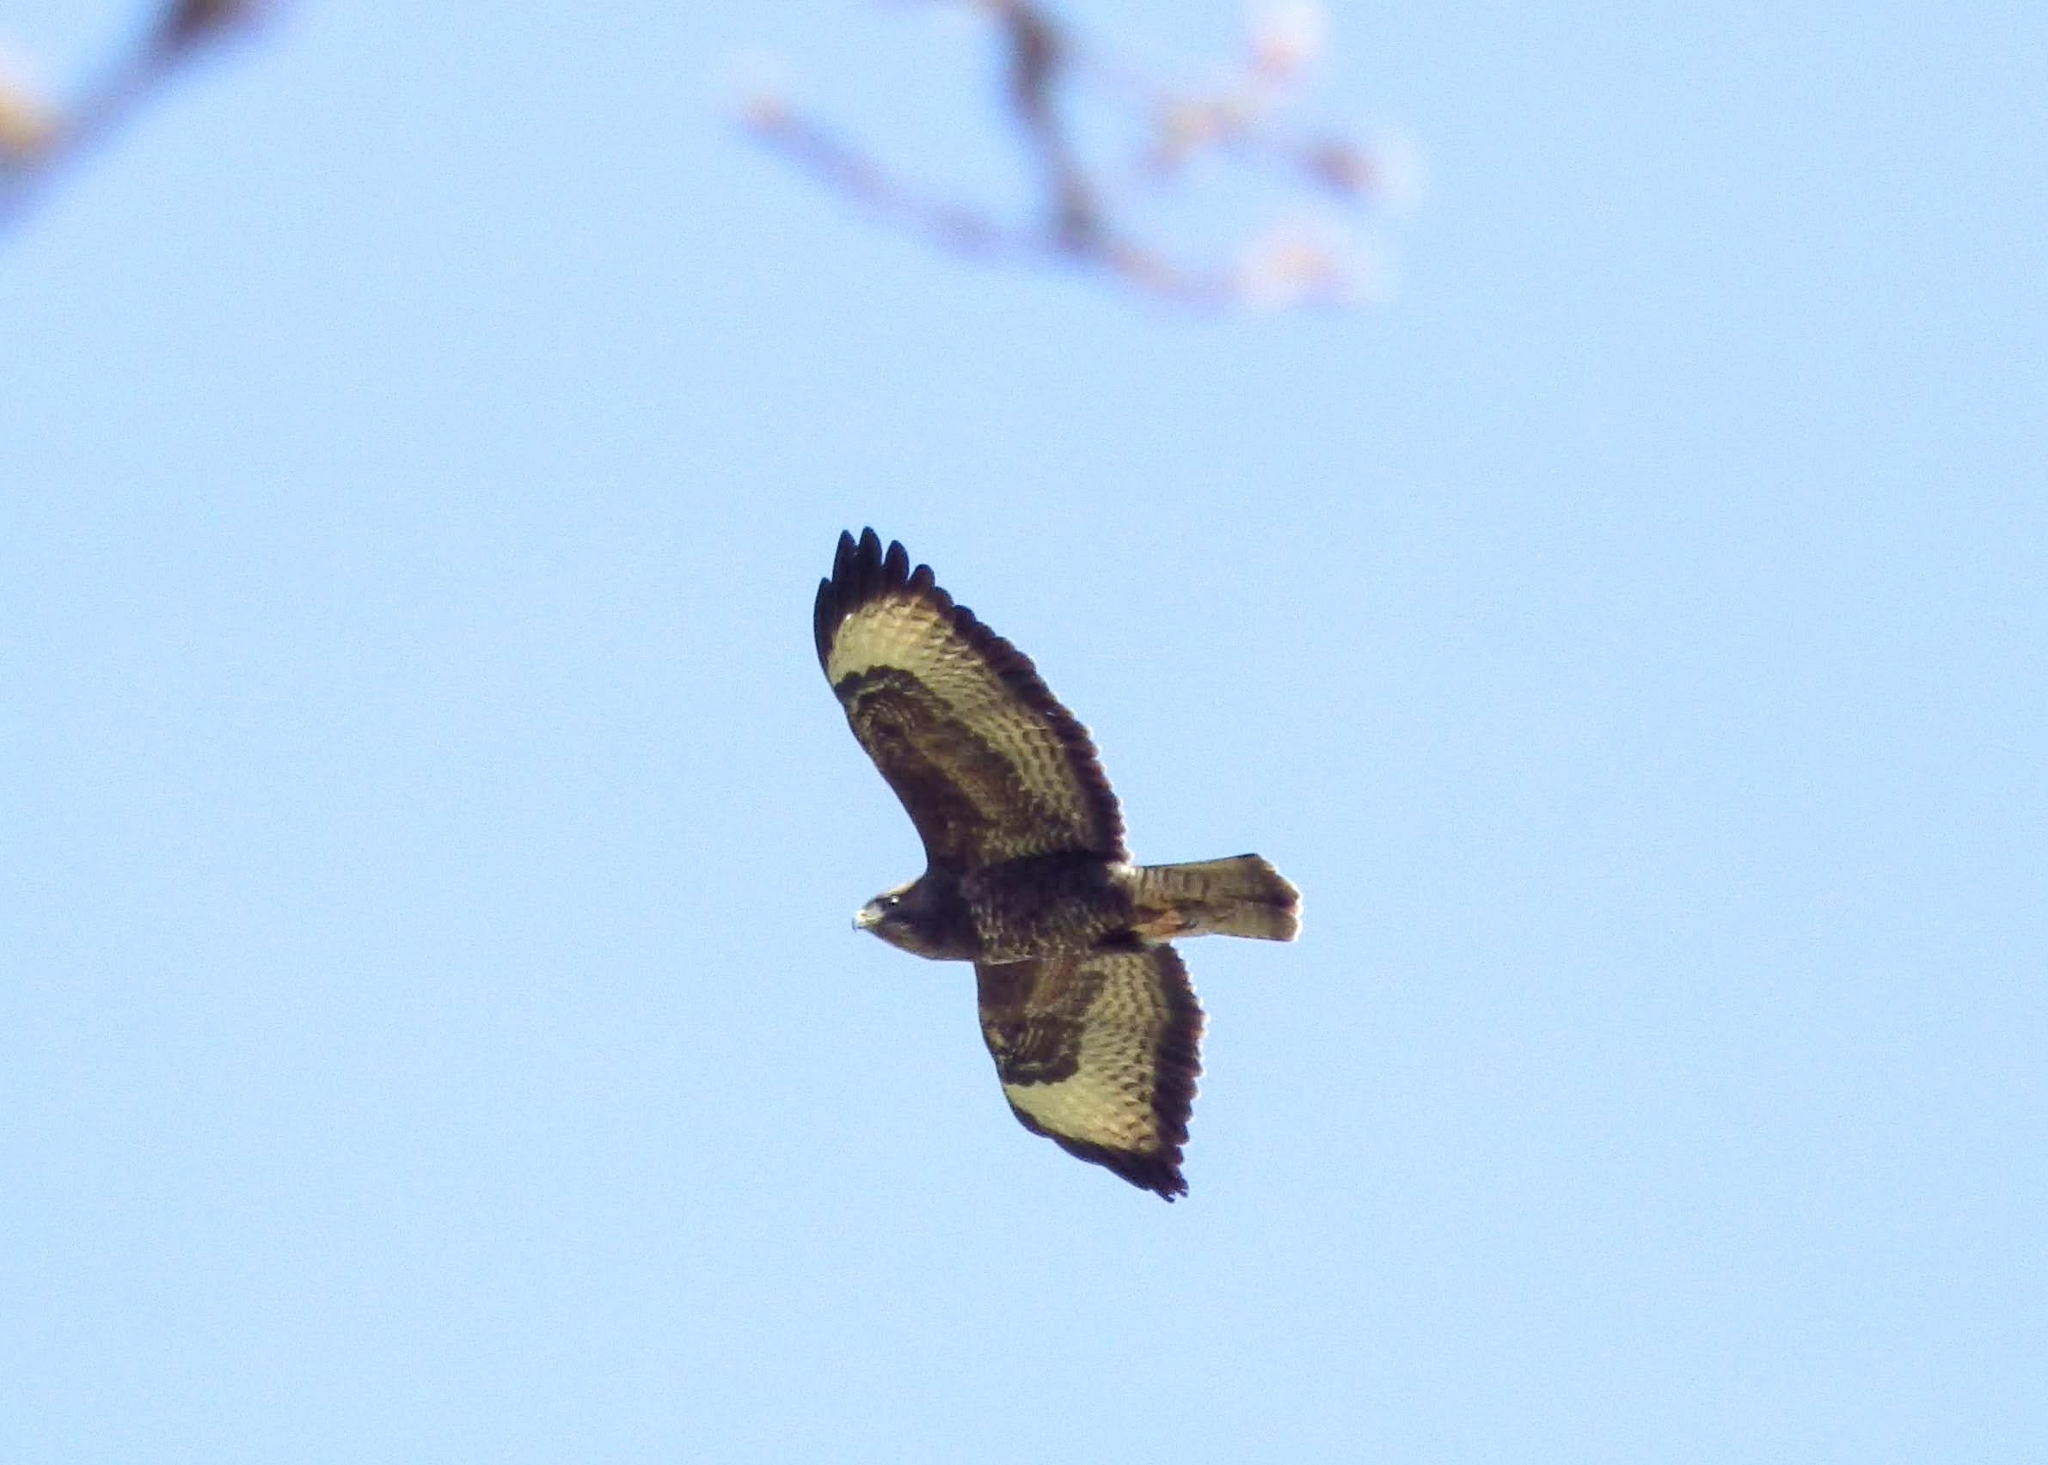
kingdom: Animalia
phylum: Chordata
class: Aves
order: Accipitriformes
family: Accipitridae
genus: Buteo
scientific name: Buteo buteo
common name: Common buzzard
